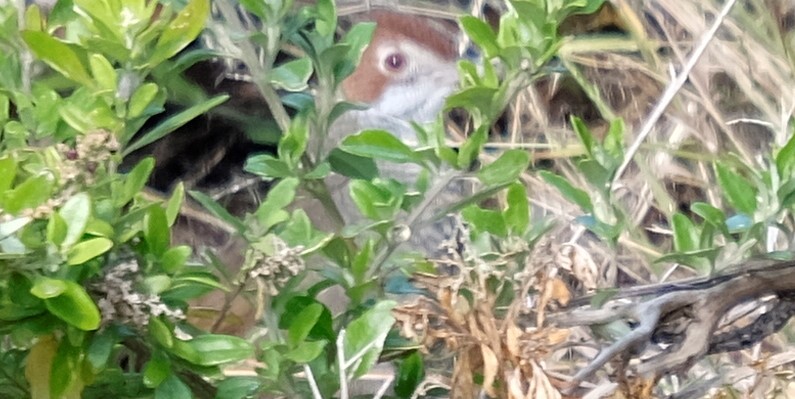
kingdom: Animalia
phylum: Chordata
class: Aves
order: Passeriformes
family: Dasyornithidae
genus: Dasyornis
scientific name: Dasyornis broadbenti
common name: Rufous bristlebird
